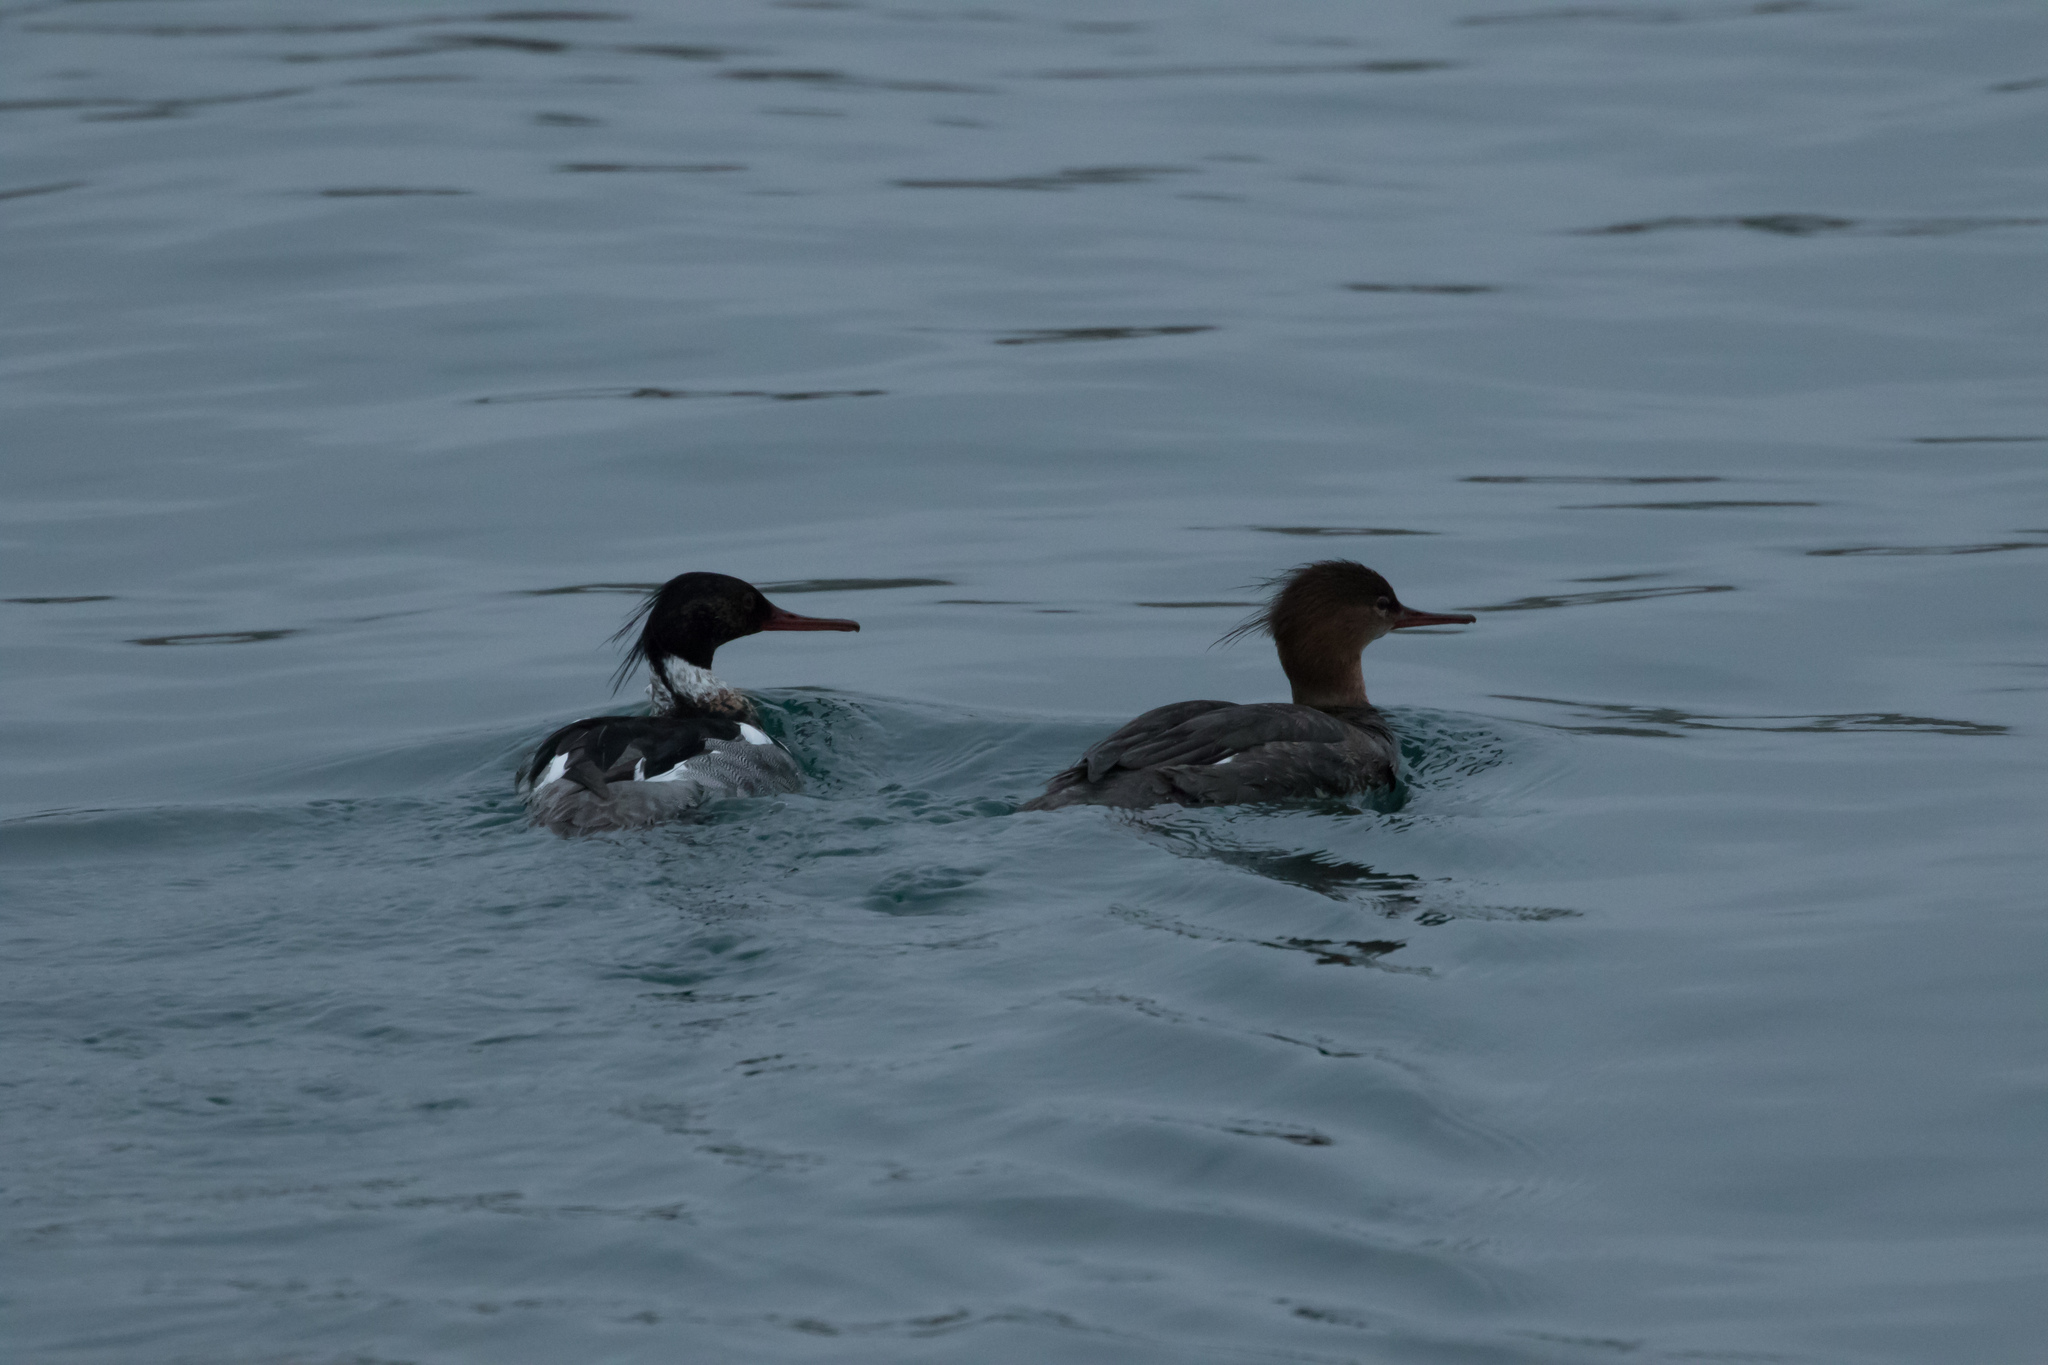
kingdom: Animalia
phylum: Chordata
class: Aves
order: Anseriformes
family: Anatidae
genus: Mergus
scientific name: Mergus serrator
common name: Red-breasted merganser
